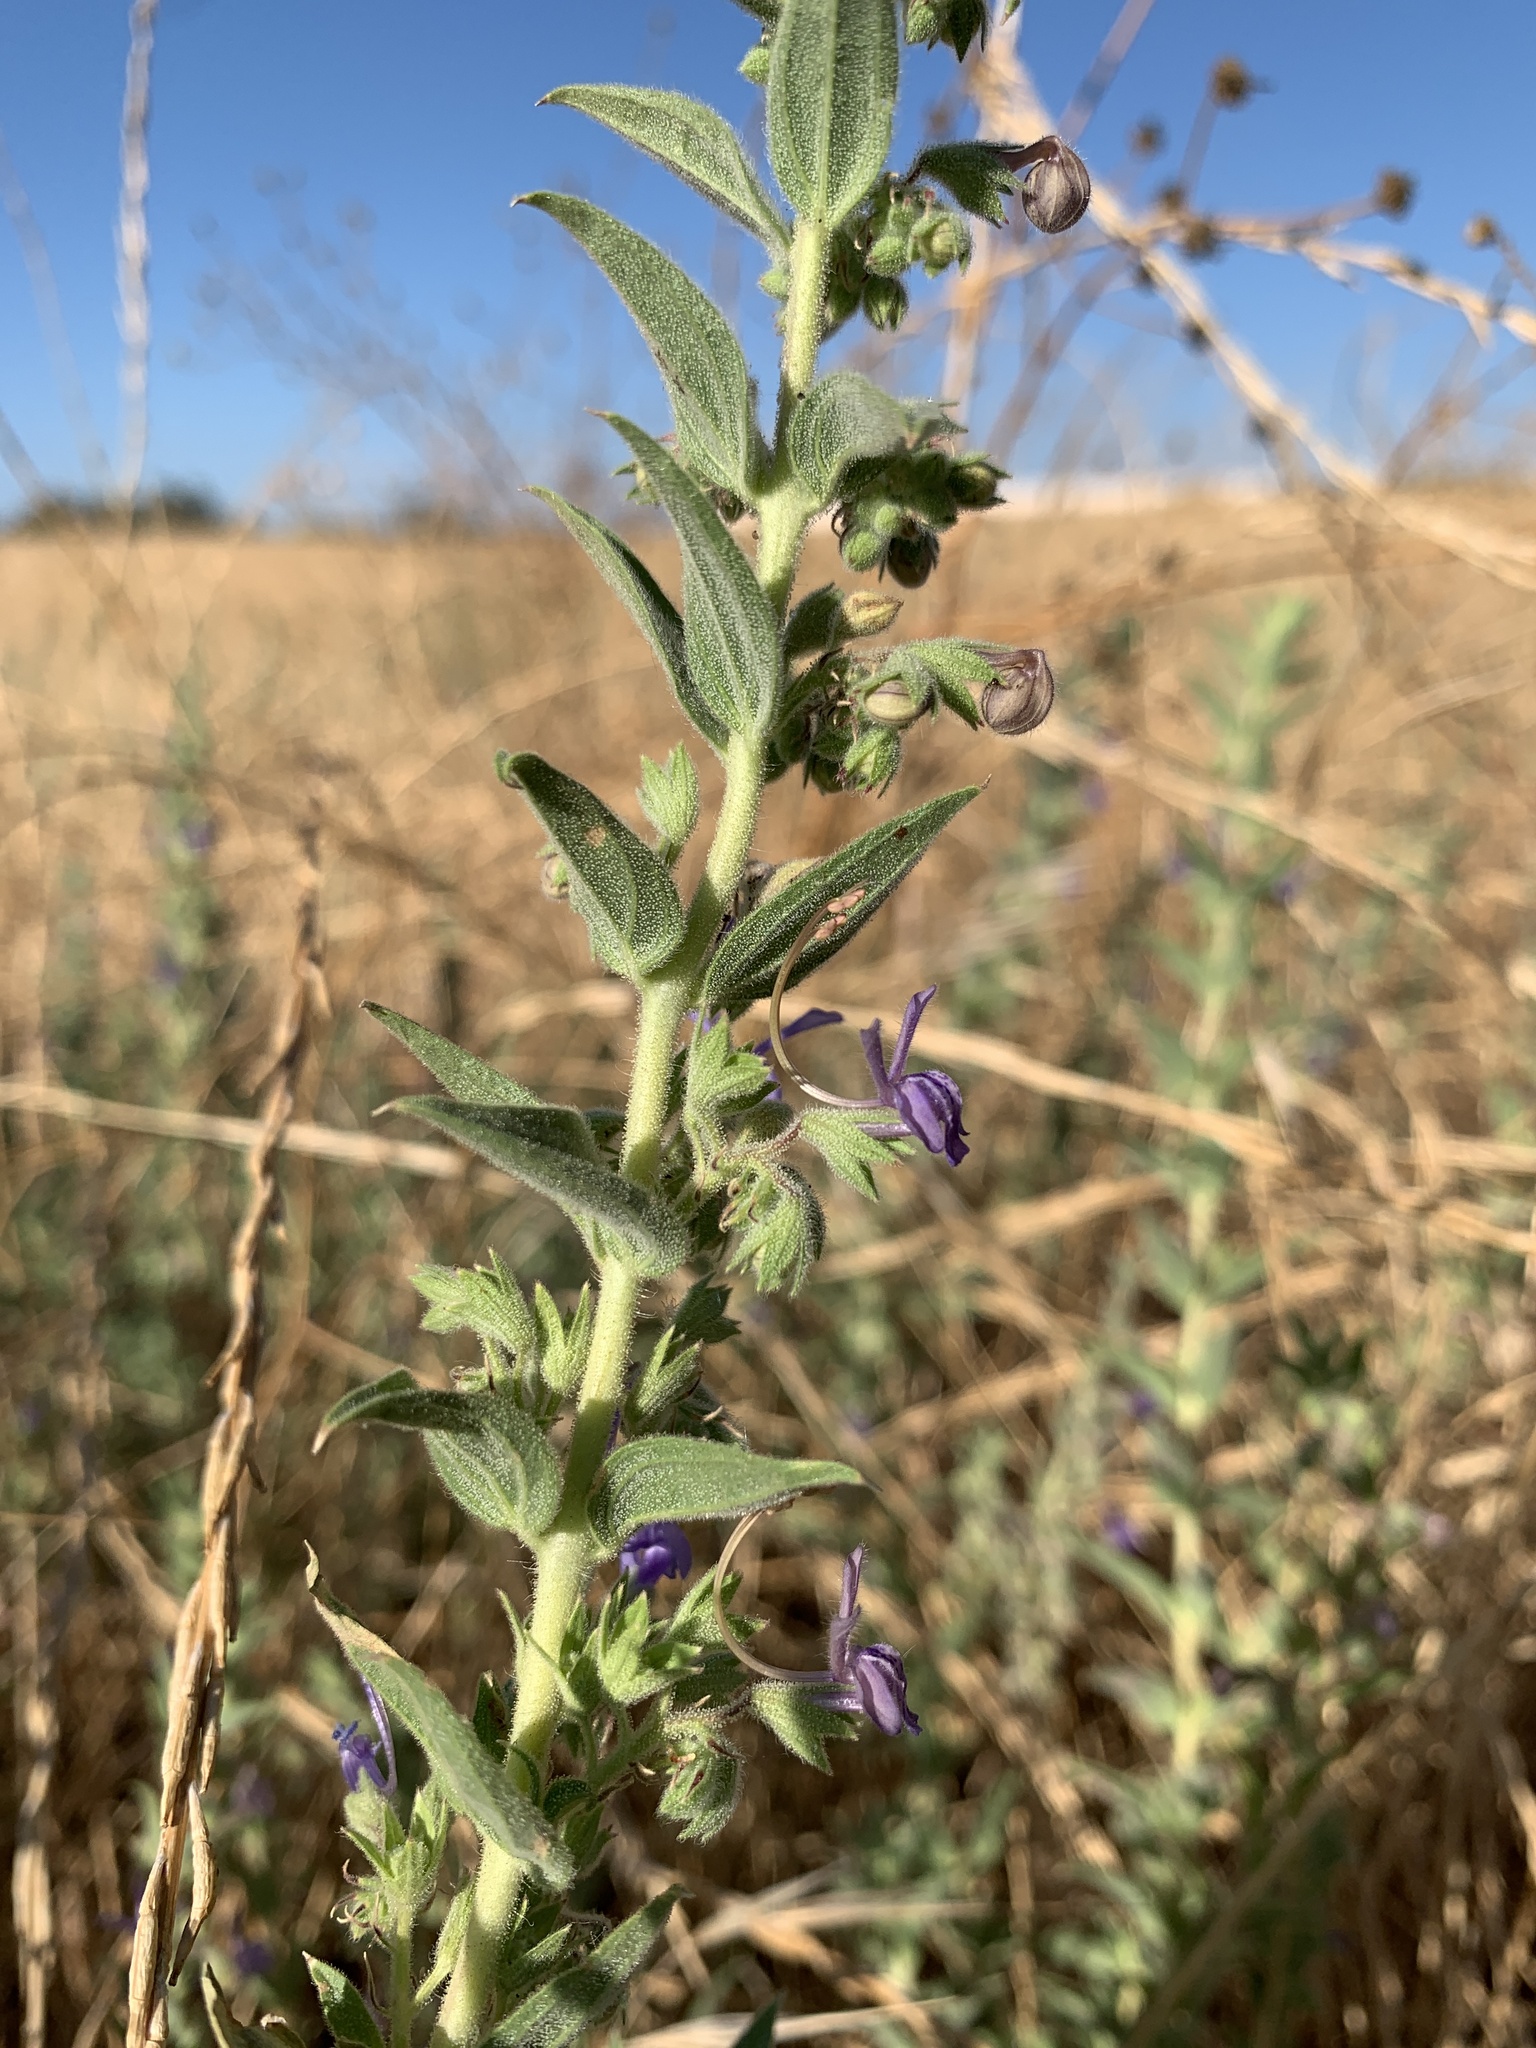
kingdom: Plantae
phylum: Tracheophyta
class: Magnoliopsida
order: Lamiales
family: Lamiaceae
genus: Trichostema
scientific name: Trichostema lanceolatum
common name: Vinegar-weed
